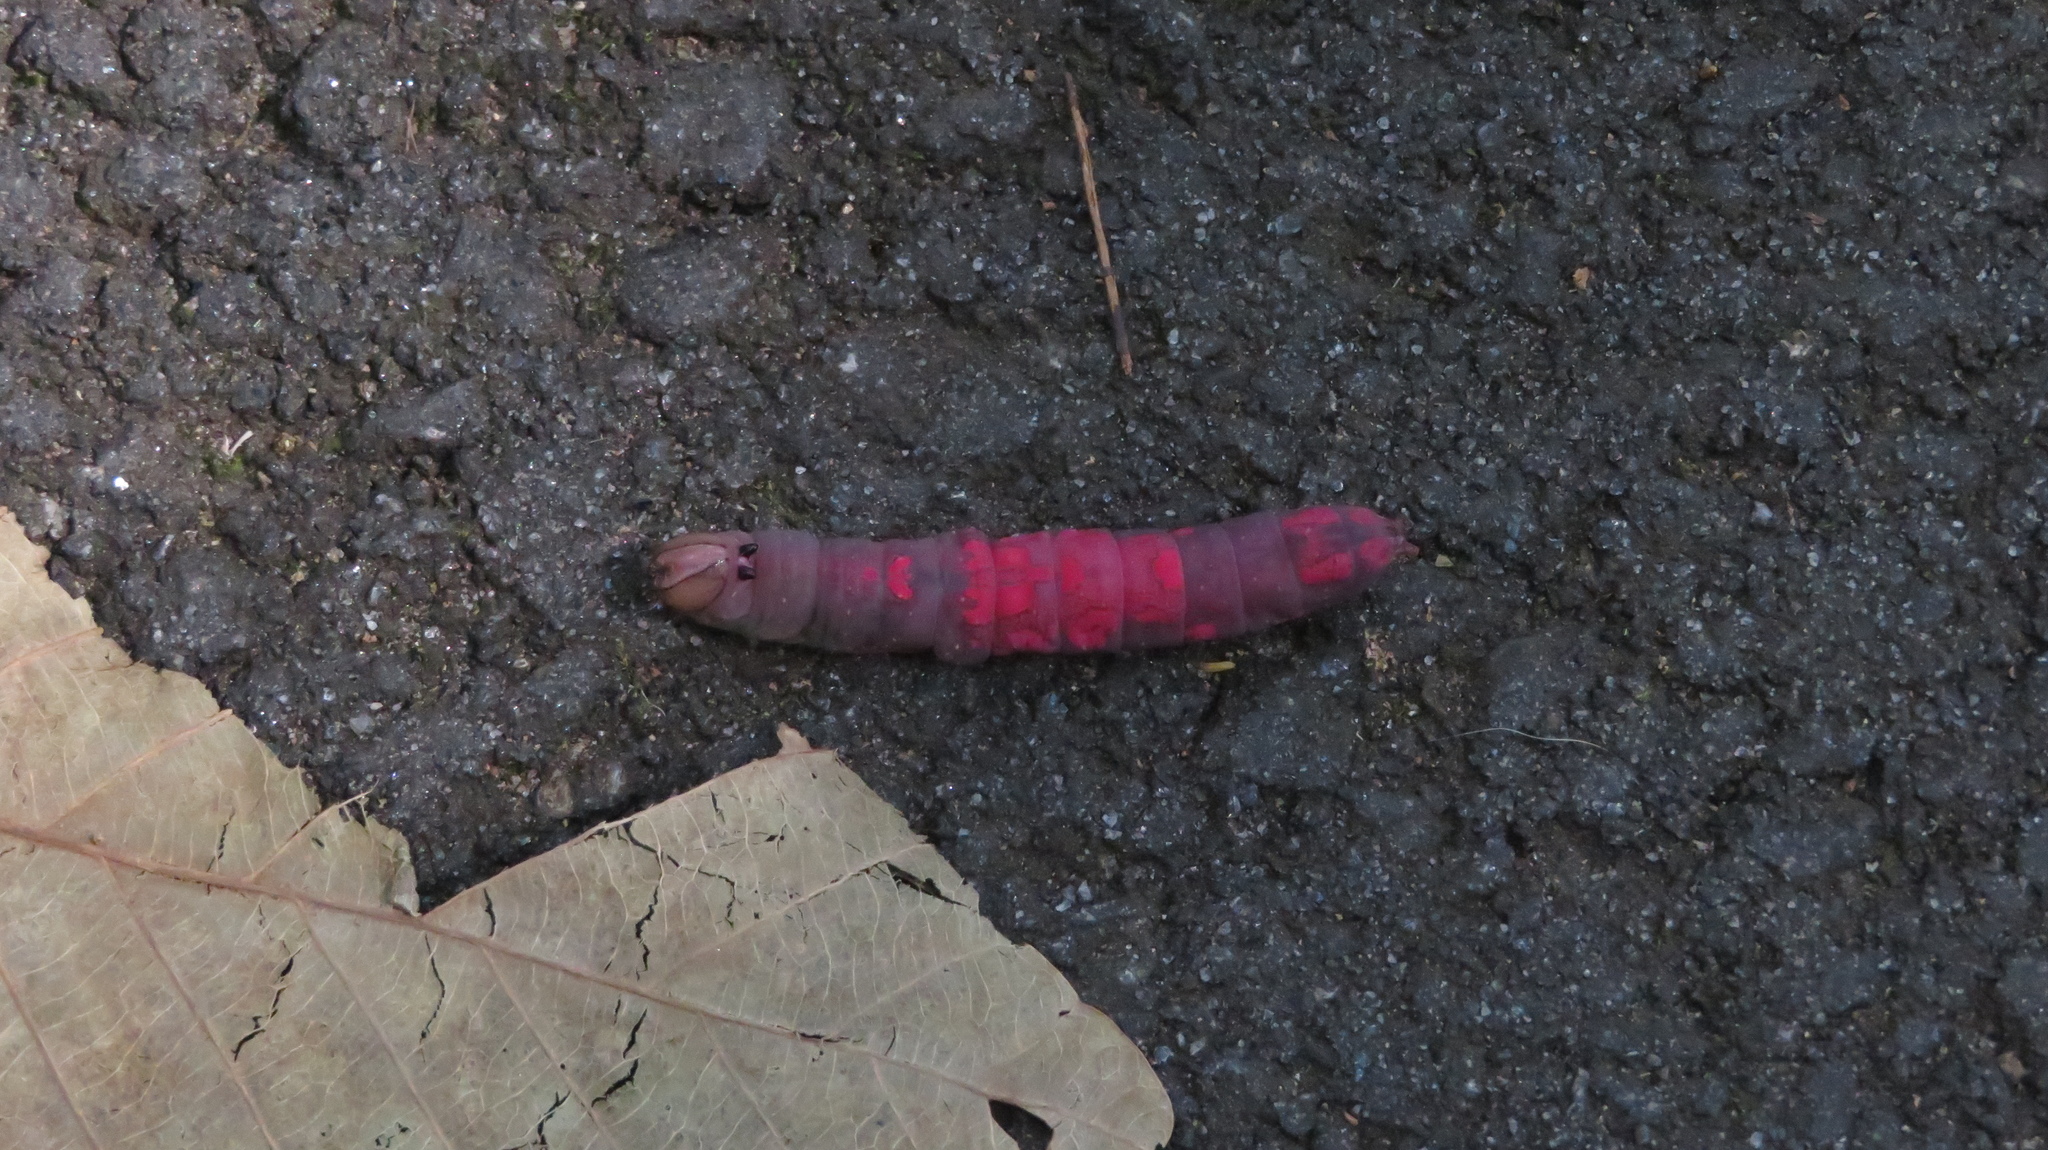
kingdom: Animalia
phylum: Arthropoda
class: Insecta
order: Lepidoptera
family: Notodontidae
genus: Heterocampa
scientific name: Heterocampa
